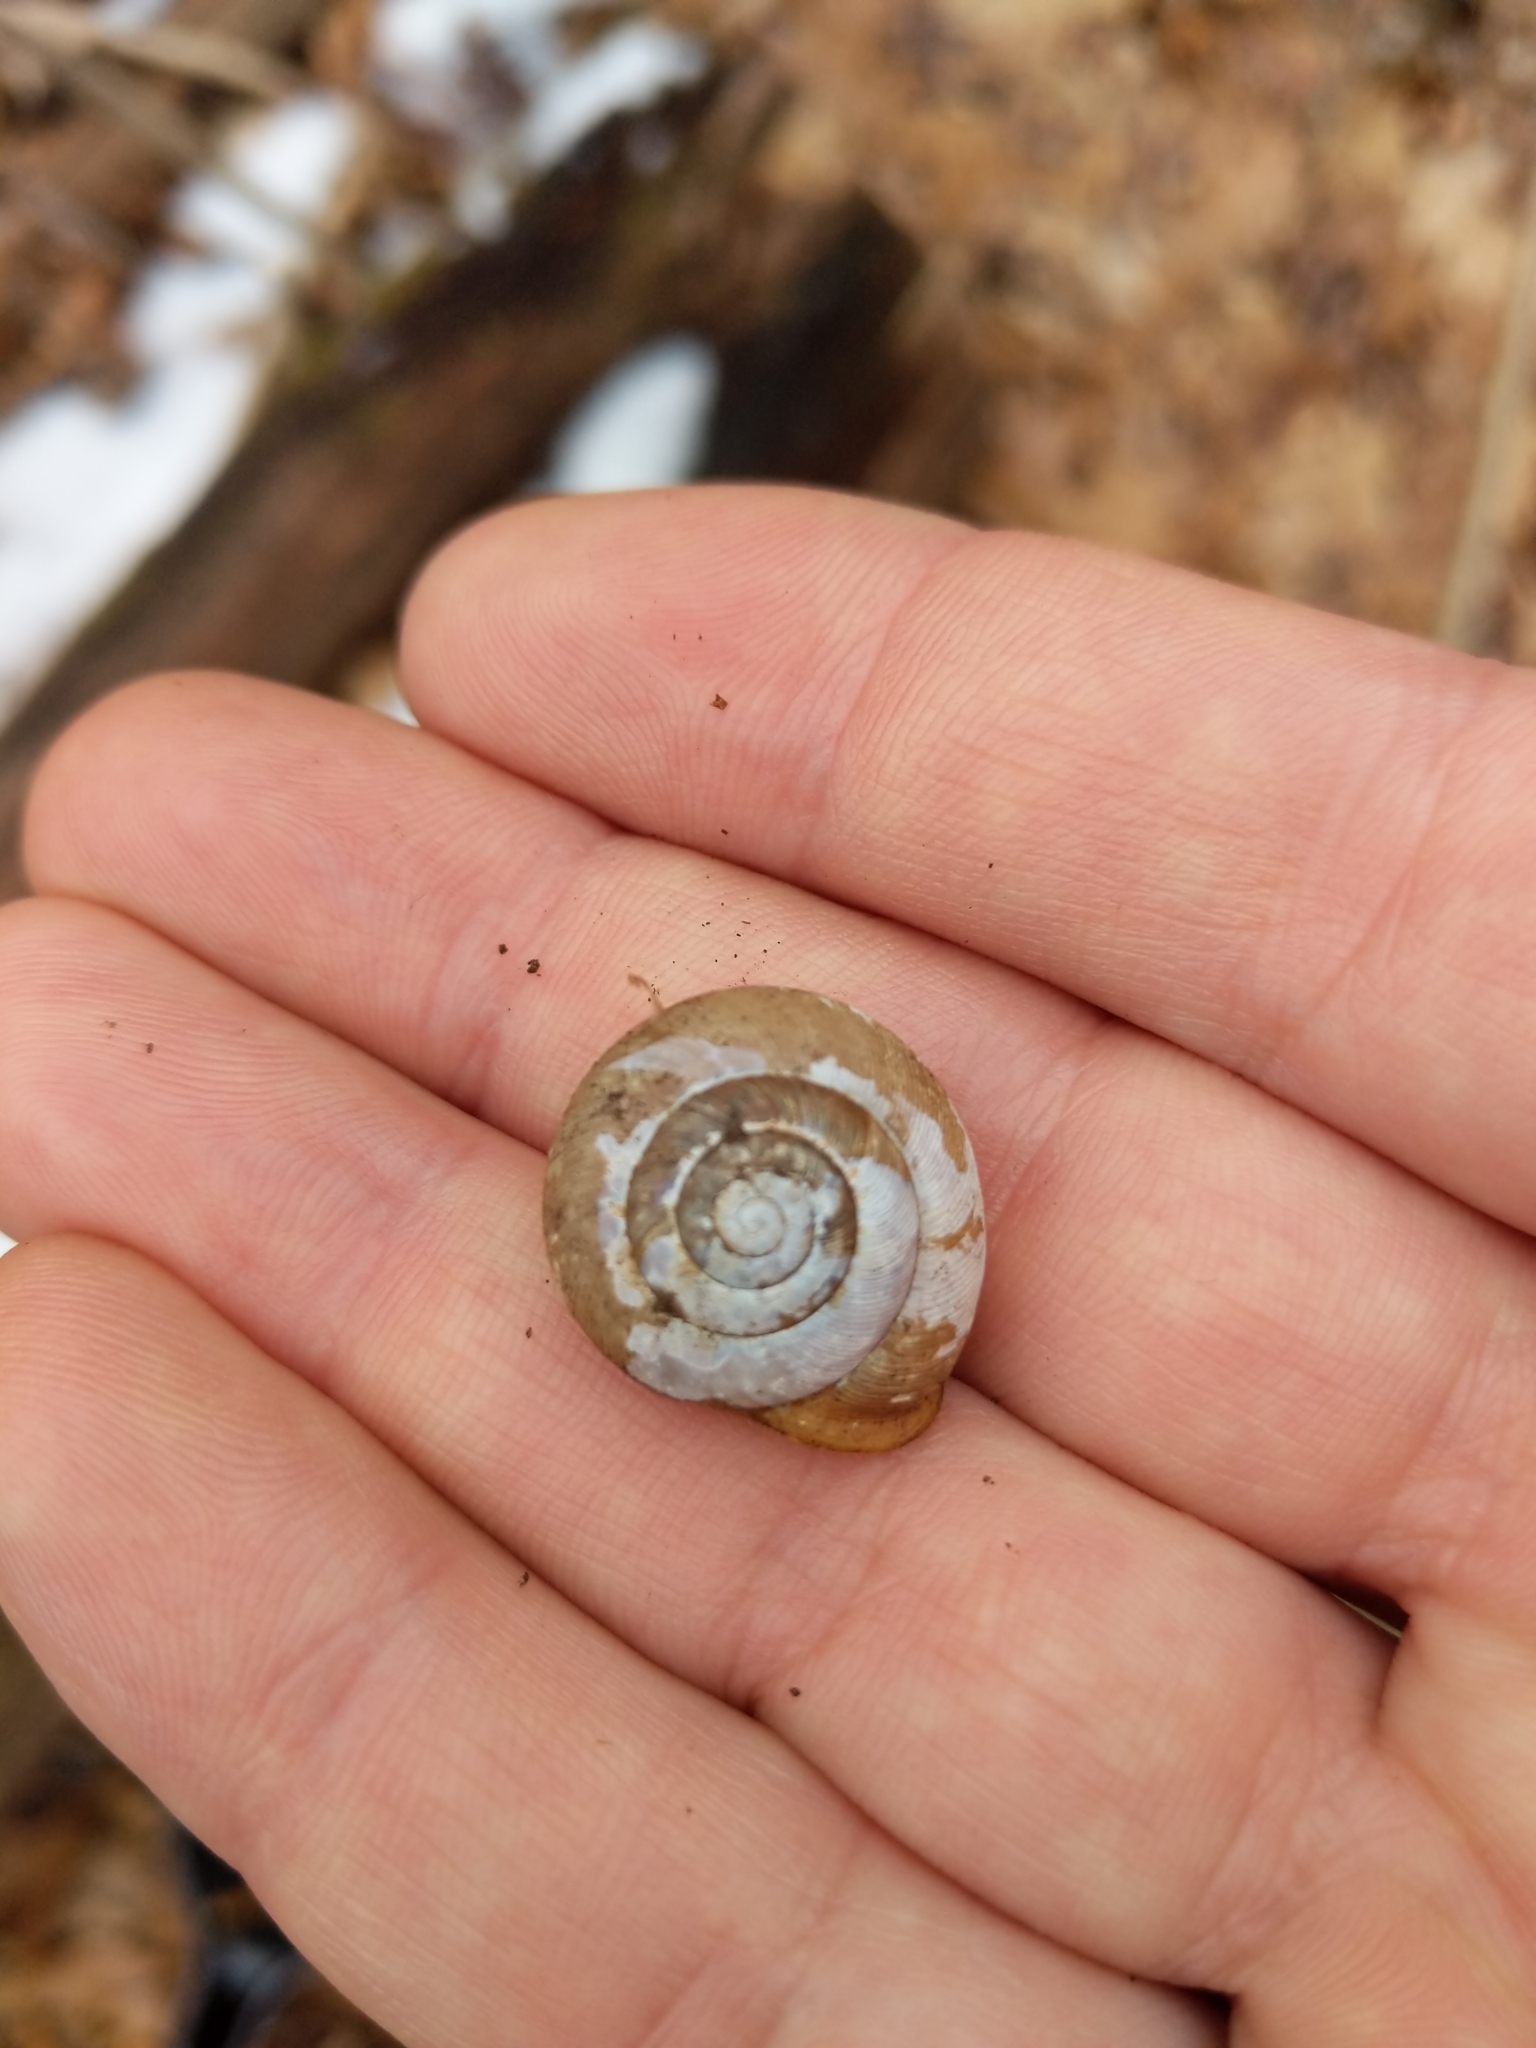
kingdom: Animalia
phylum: Mollusca
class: Gastropoda
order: Stylommatophora
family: Polygyridae
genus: Mesodon
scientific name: Mesodon thyroidus
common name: White-lip globe
